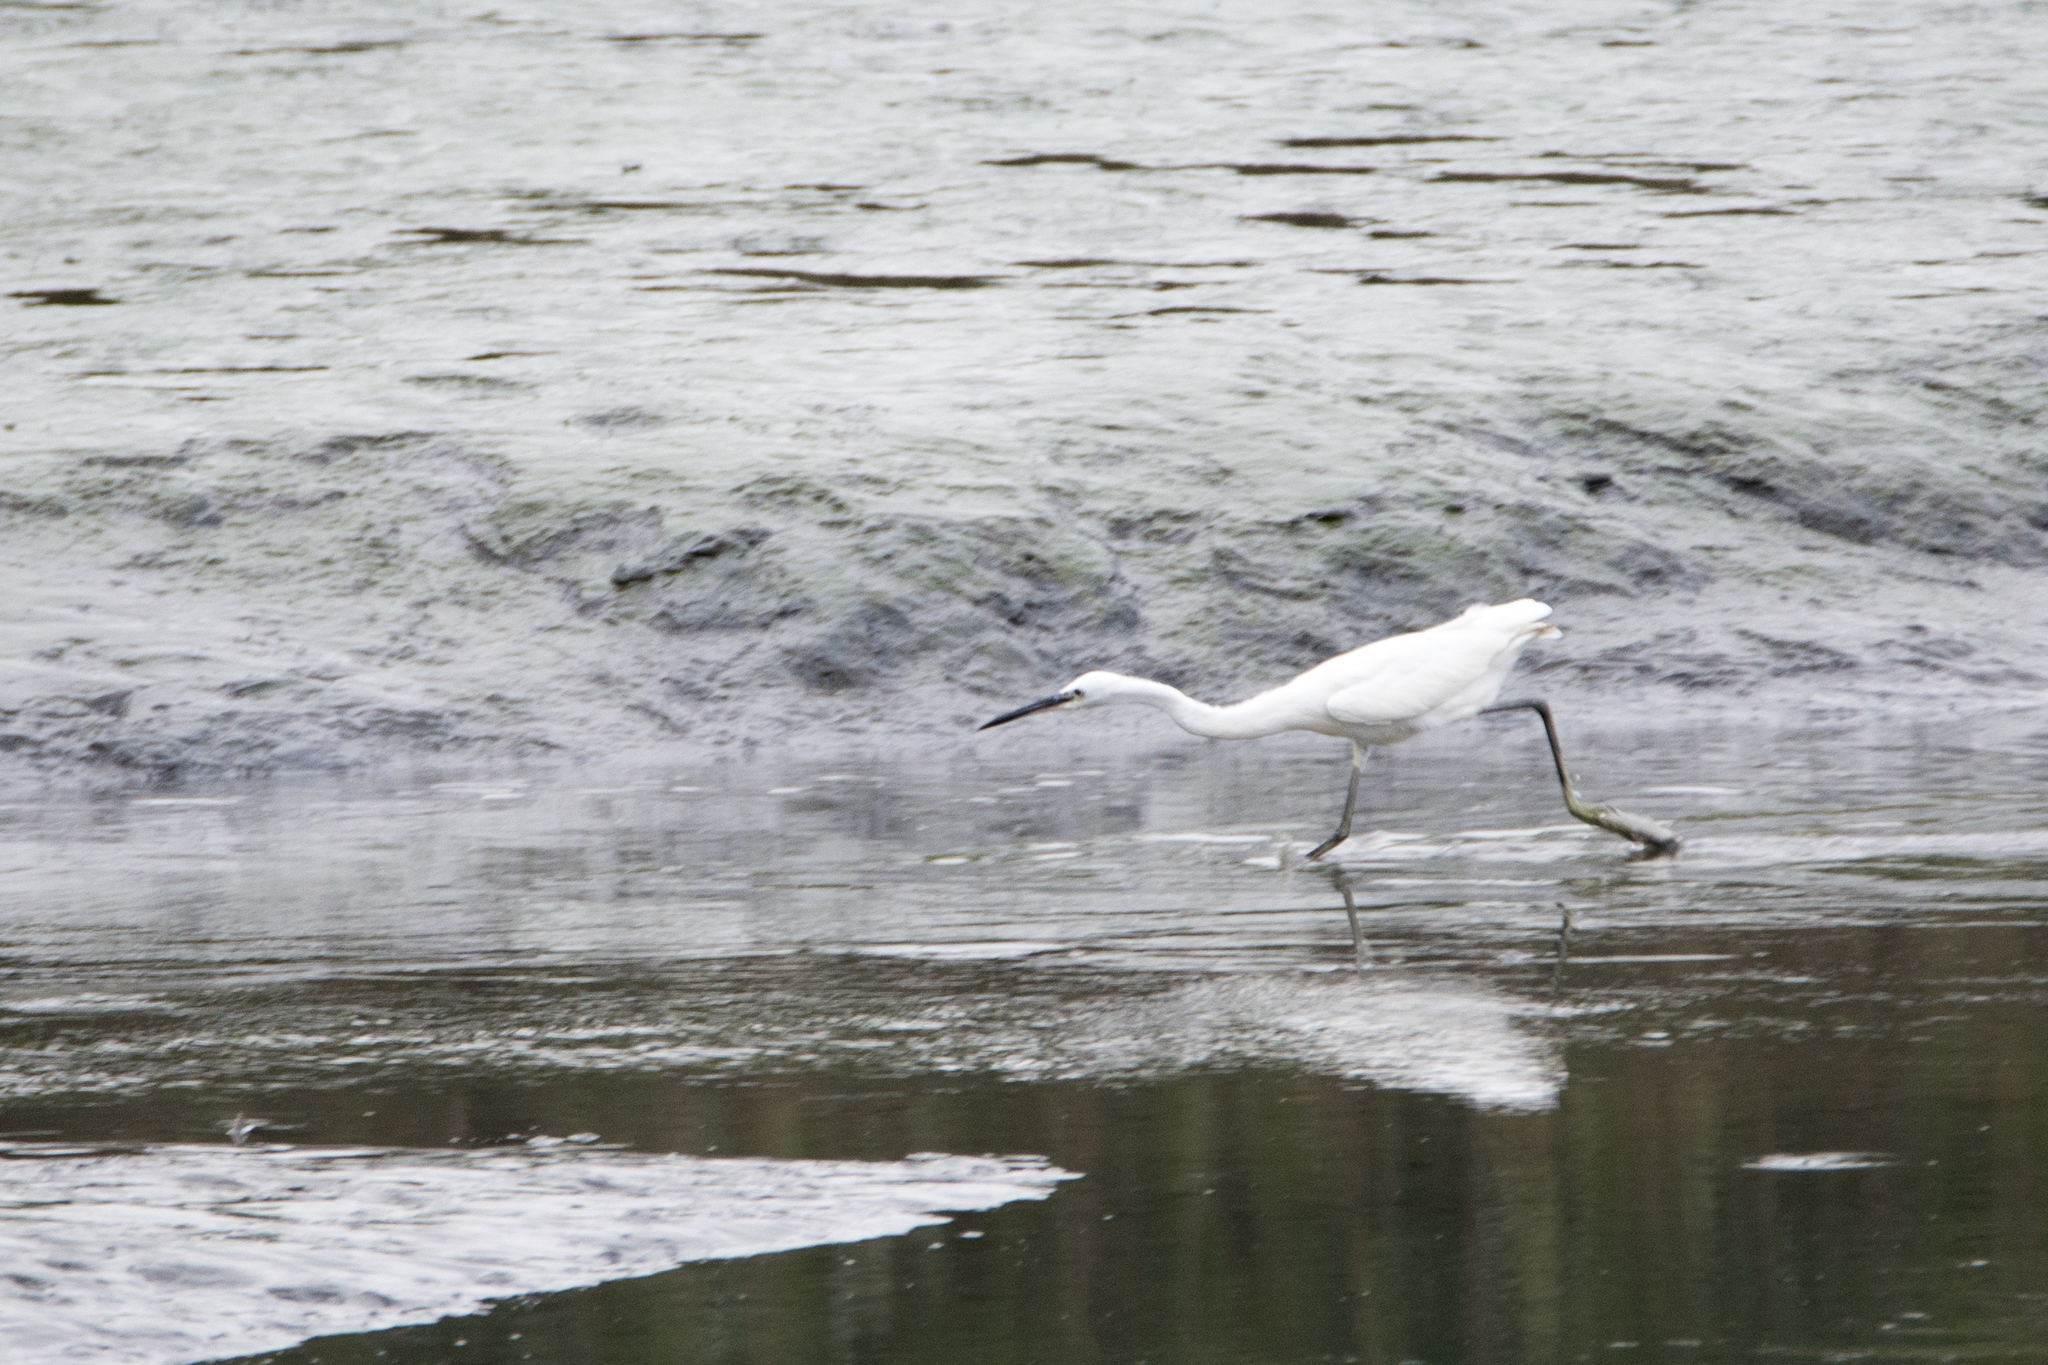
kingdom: Animalia
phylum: Chordata
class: Aves
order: Pelecaniformes
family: Ardeidae
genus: Egretta
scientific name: Egretta garzetta
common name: Little egret
